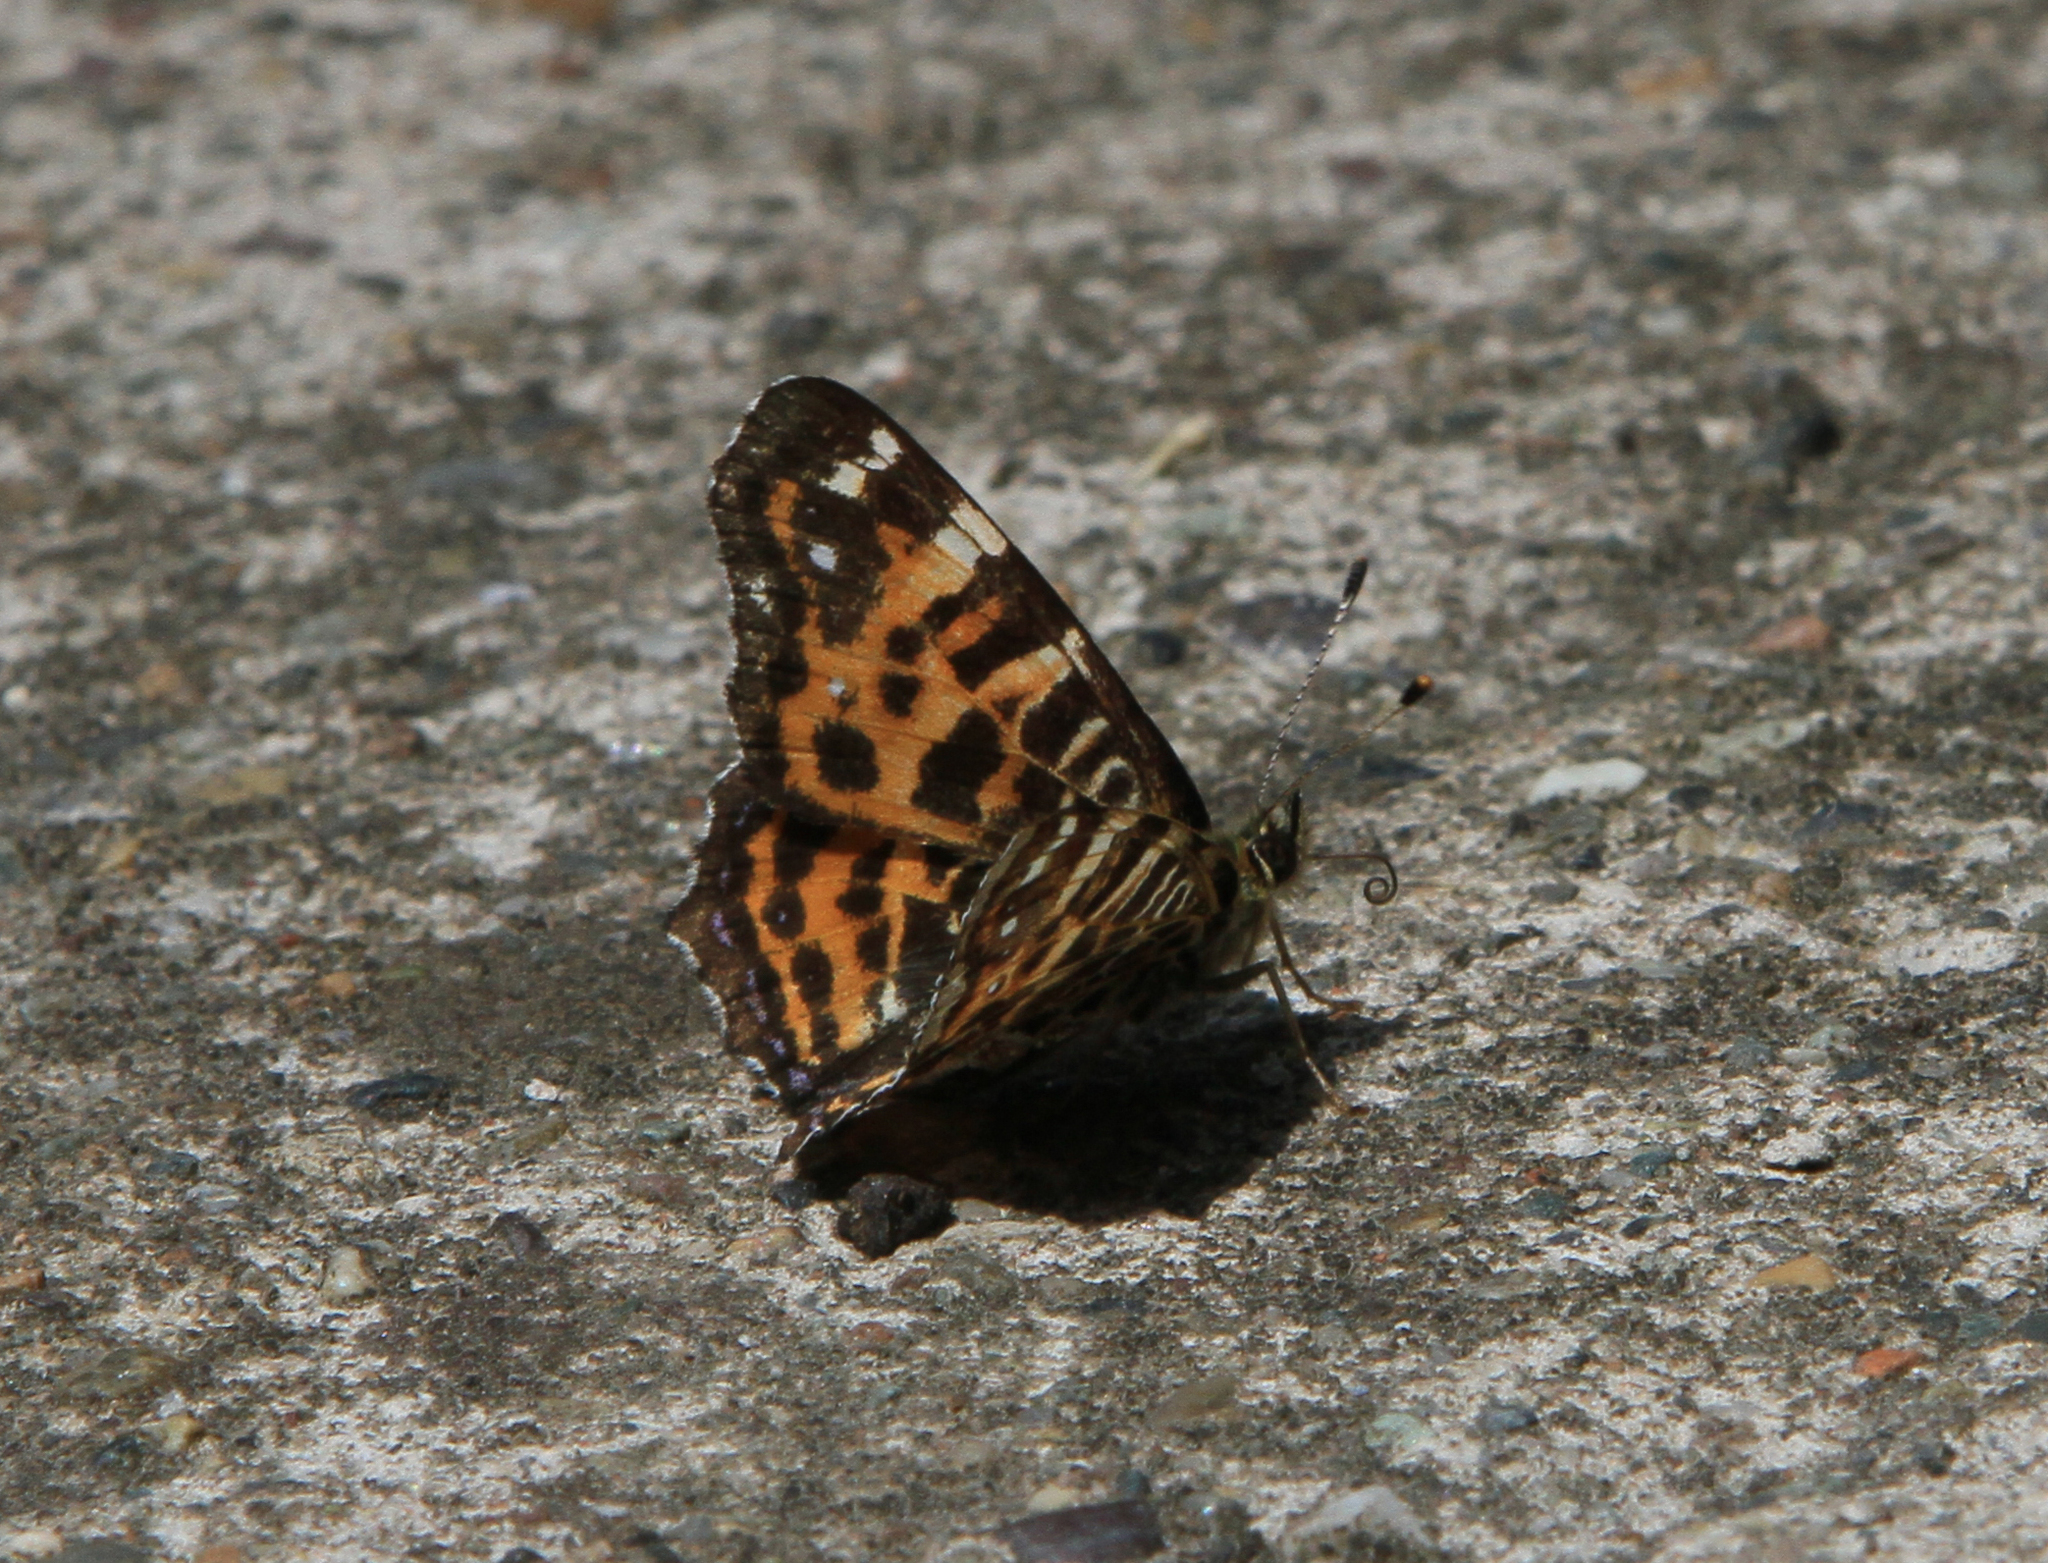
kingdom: Animalia
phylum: Arthropoda
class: Insecta
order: Lepidoptera
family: Nymphalidae
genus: Araschnia
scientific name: Araschnia levana
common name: Map butterfly
